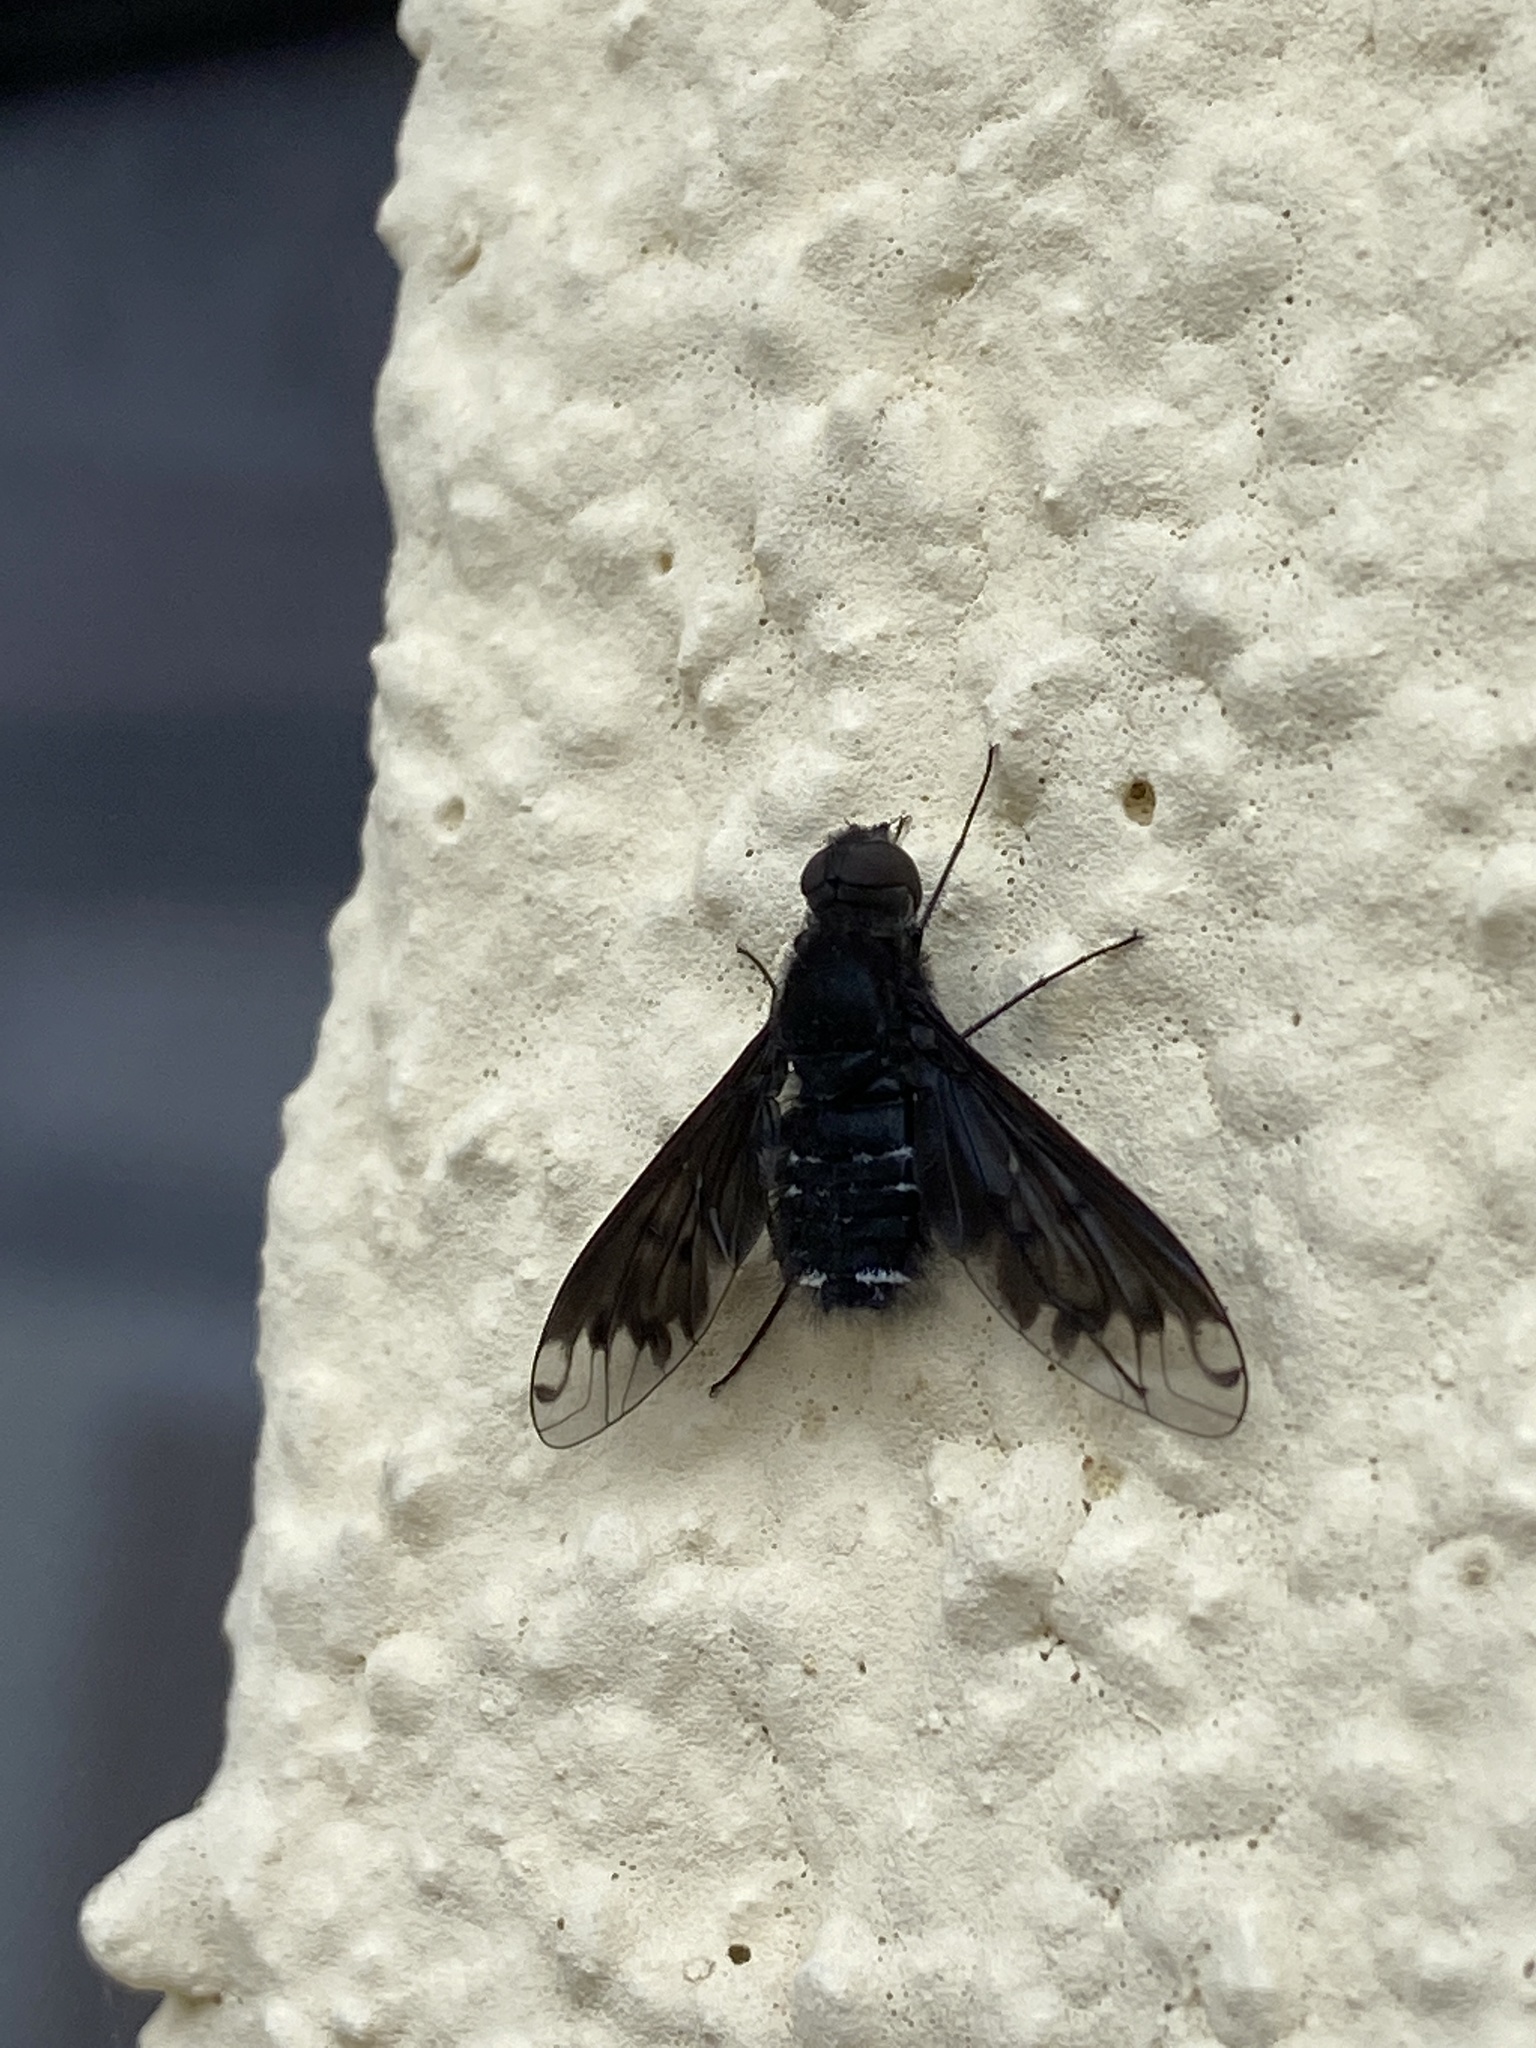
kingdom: Animalia
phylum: Arthropoda
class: Insecta
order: Diptera
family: Bombyliidae
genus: Anthrax
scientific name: Anthrax anthrax
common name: Anthracite bee-fly
